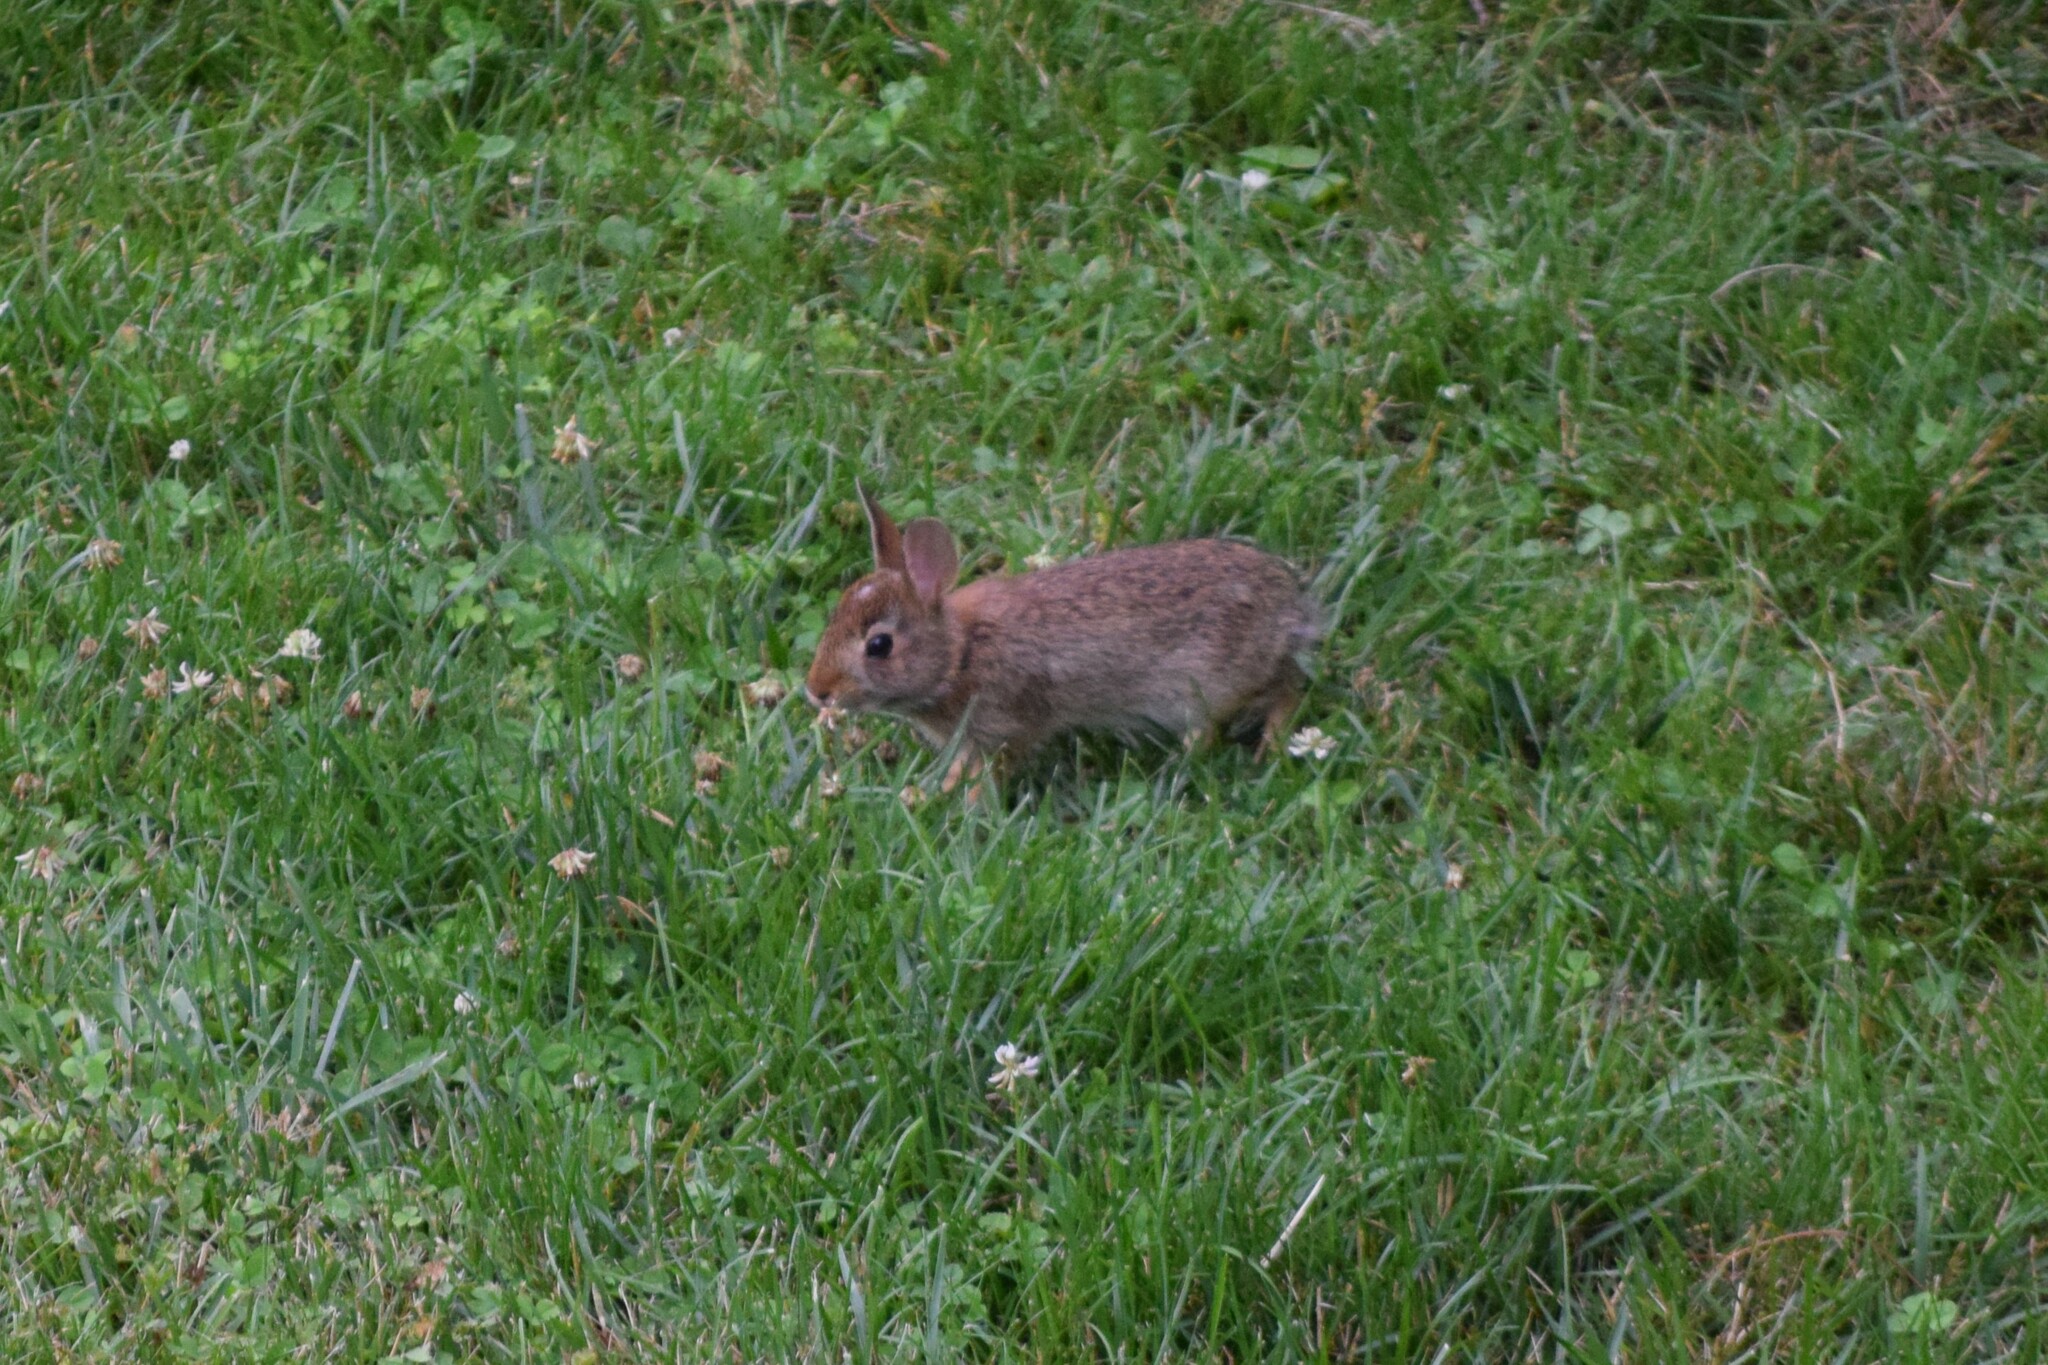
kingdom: Animalia
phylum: Chordata
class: Mammalia
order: Lagomorpha
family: Leporidae
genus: Sylvilagus
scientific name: Sylvilagus floridanus
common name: Eastern cottontail
